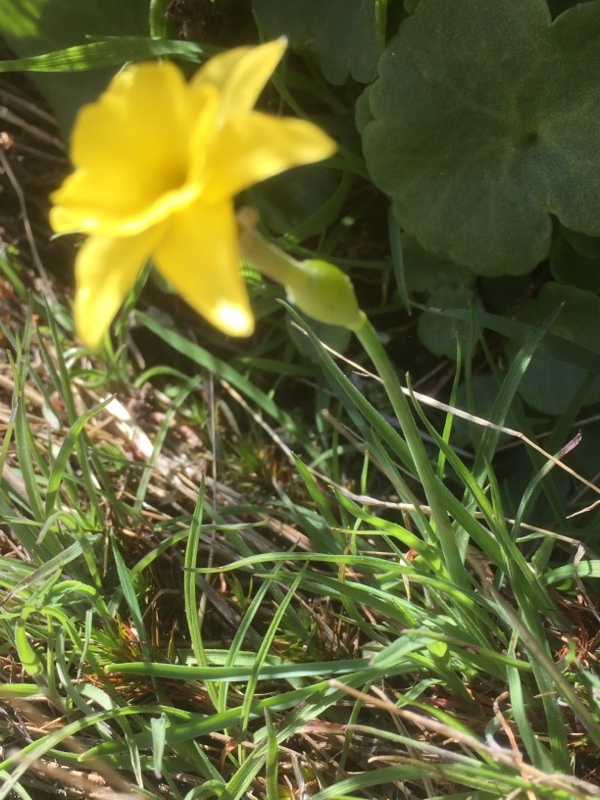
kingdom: Plantae
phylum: Tracheophyta
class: Liliopsida
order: Asparagales
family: Amaryllidaceae
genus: Narcissus
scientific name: Narcissus rupicola
